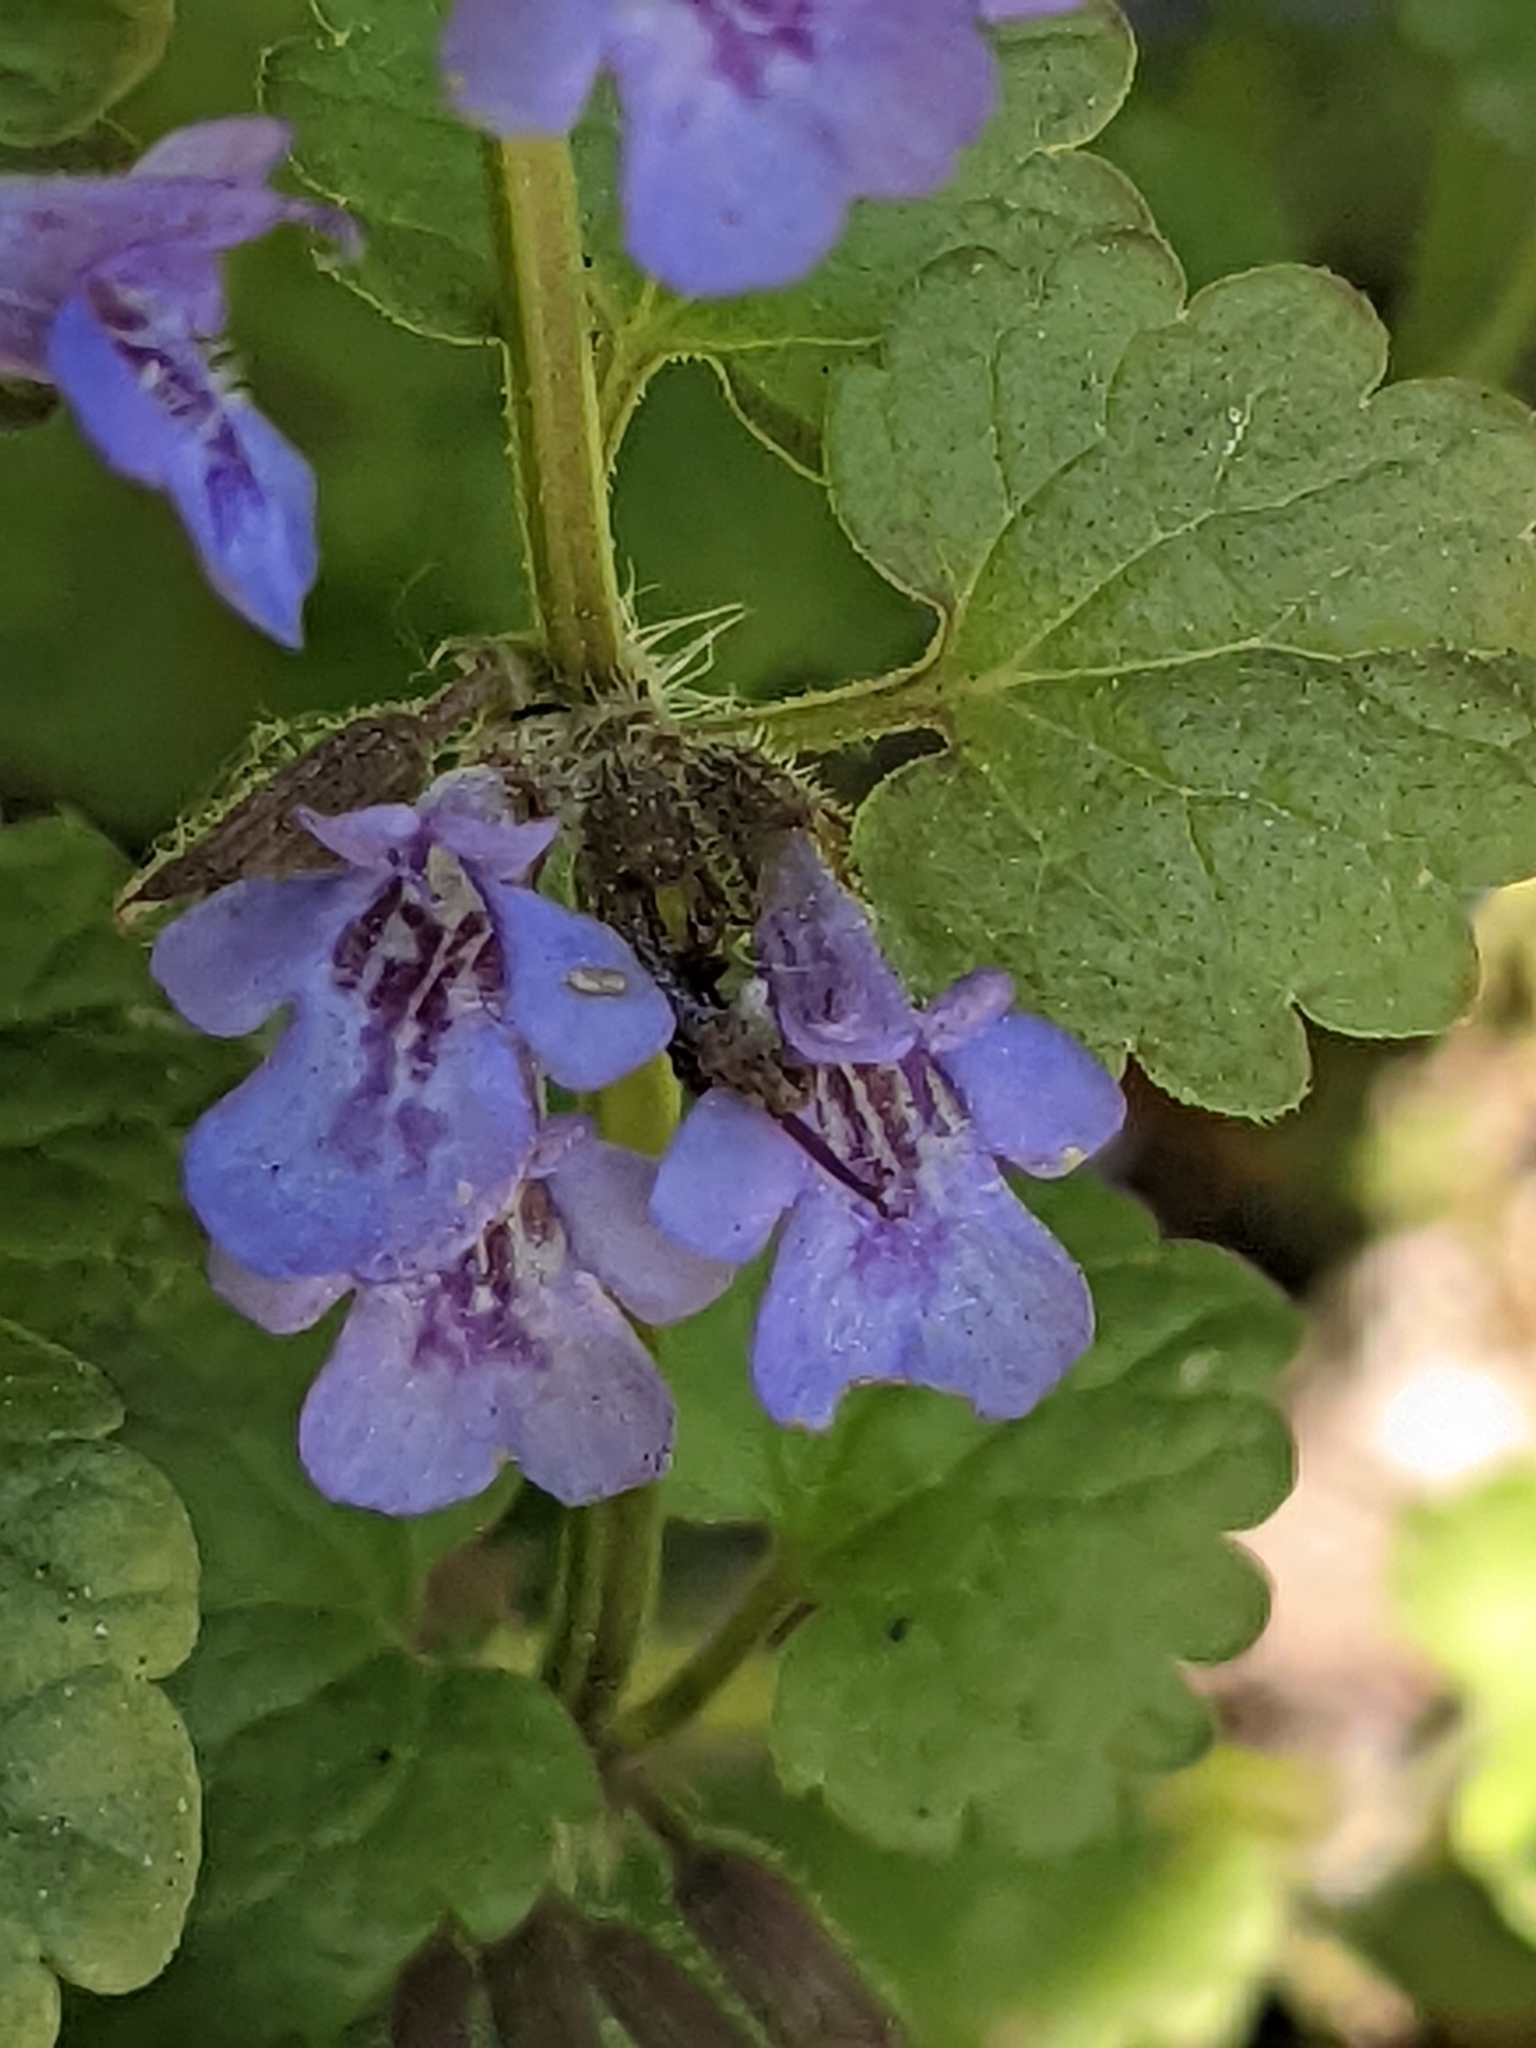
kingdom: Plantae
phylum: Tracheophyta
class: Magnoliopsida
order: Lamiales
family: Lamiaceae
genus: Glechoma
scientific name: Glechoma hederacea
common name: Ground ivy
